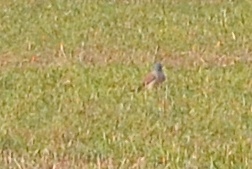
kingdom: Animalia
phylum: Chordata
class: Aves
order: Falconiformes
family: Falconidae
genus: Falco
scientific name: Falco tinnunculus
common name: Common kestrel
